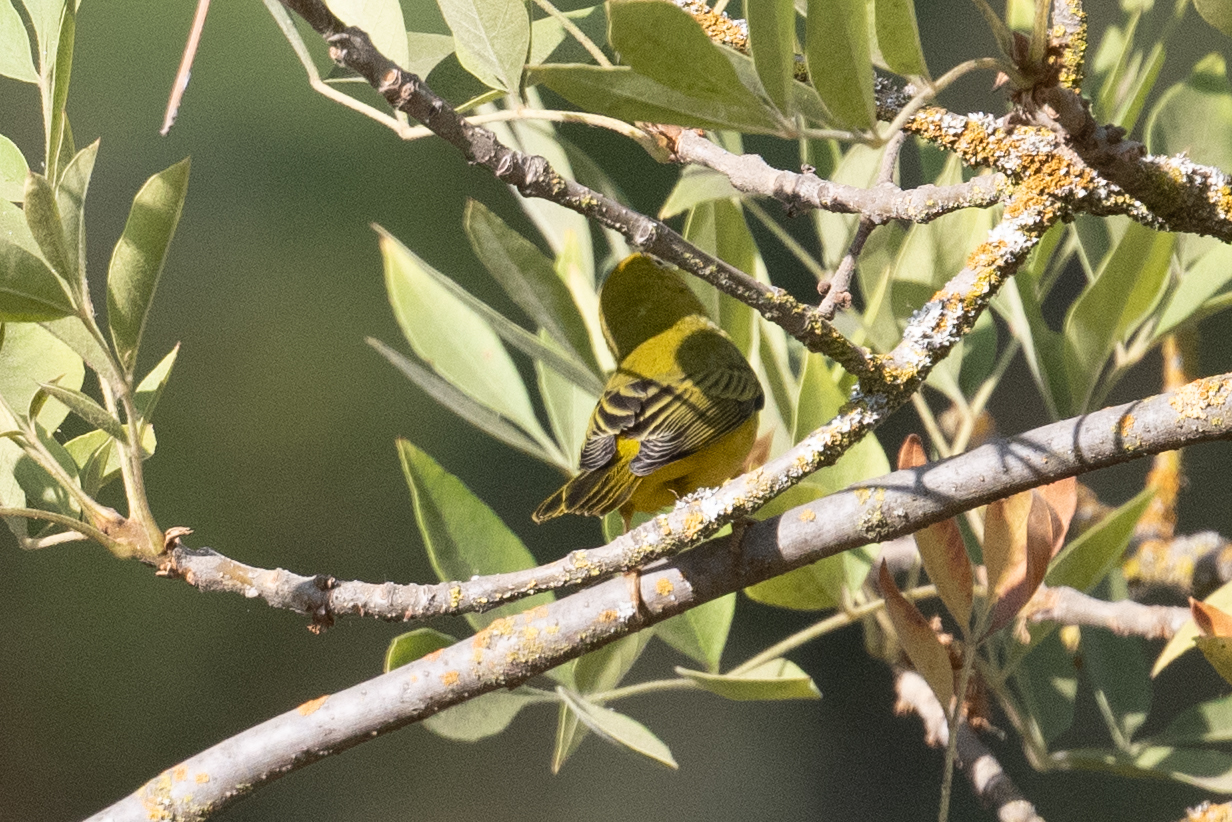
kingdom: Animalia
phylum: Chordata
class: Aves
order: Passeriformes
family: Parulidae
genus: Setophaga
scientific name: Setophaga petechia
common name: Yellow warbler
